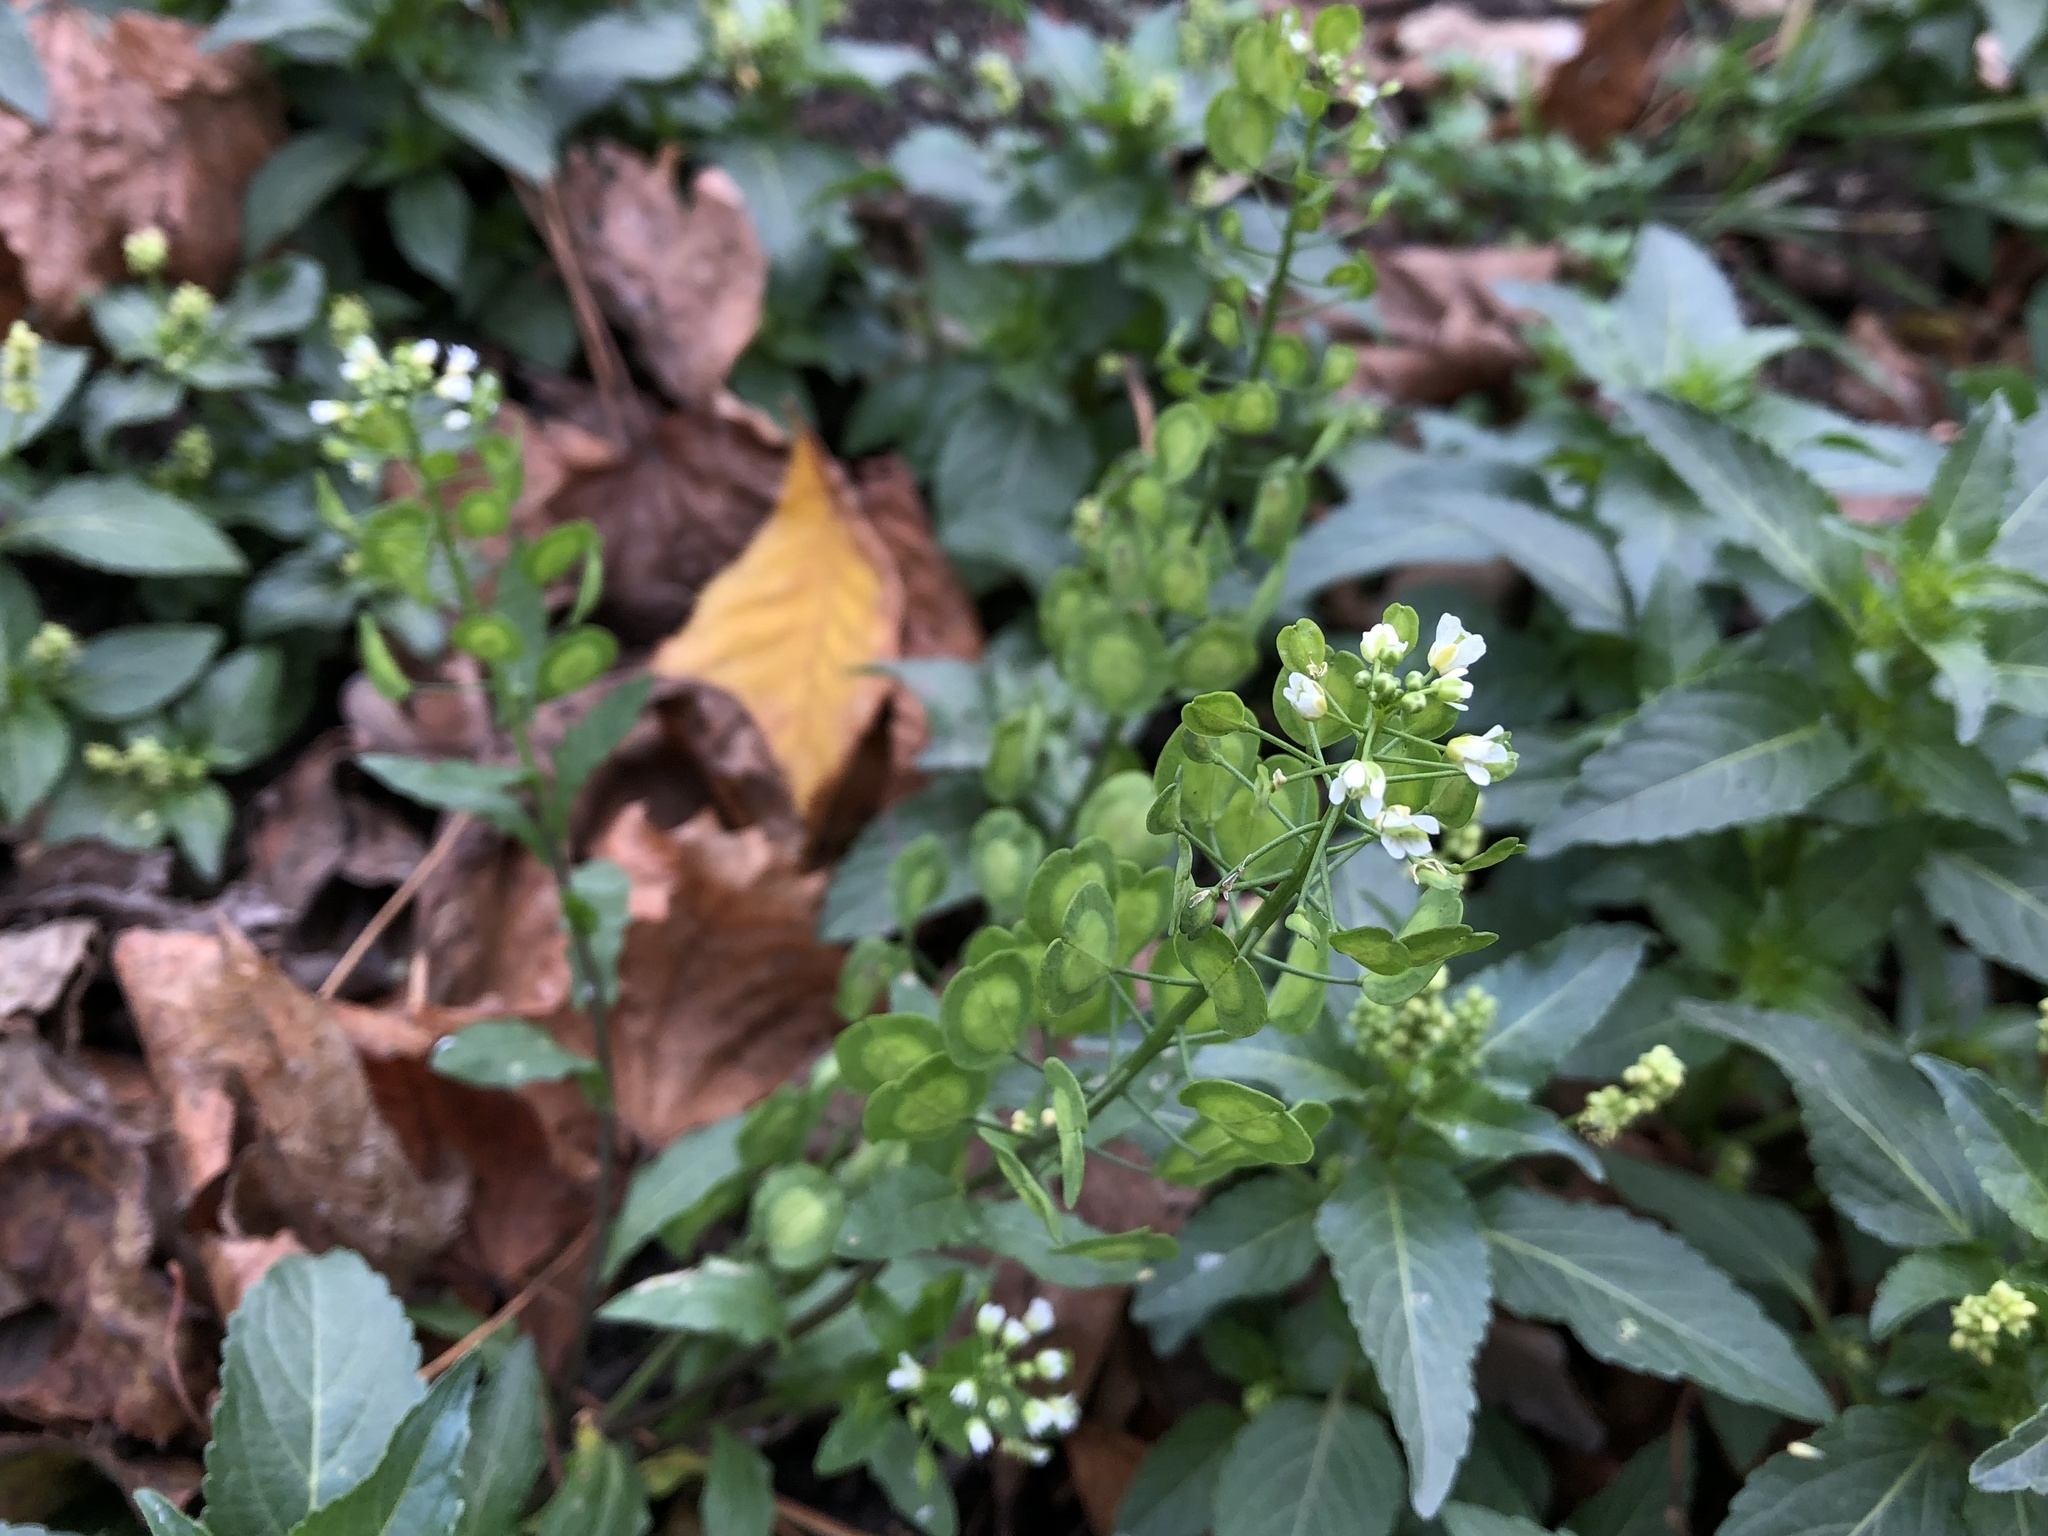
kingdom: Plantae
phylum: Tracheophyta
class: Magnoliopsida
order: Brassicales
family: Brassicaceae
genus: Thlaspi
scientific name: Thlaspi arvense
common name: Field pennycress
